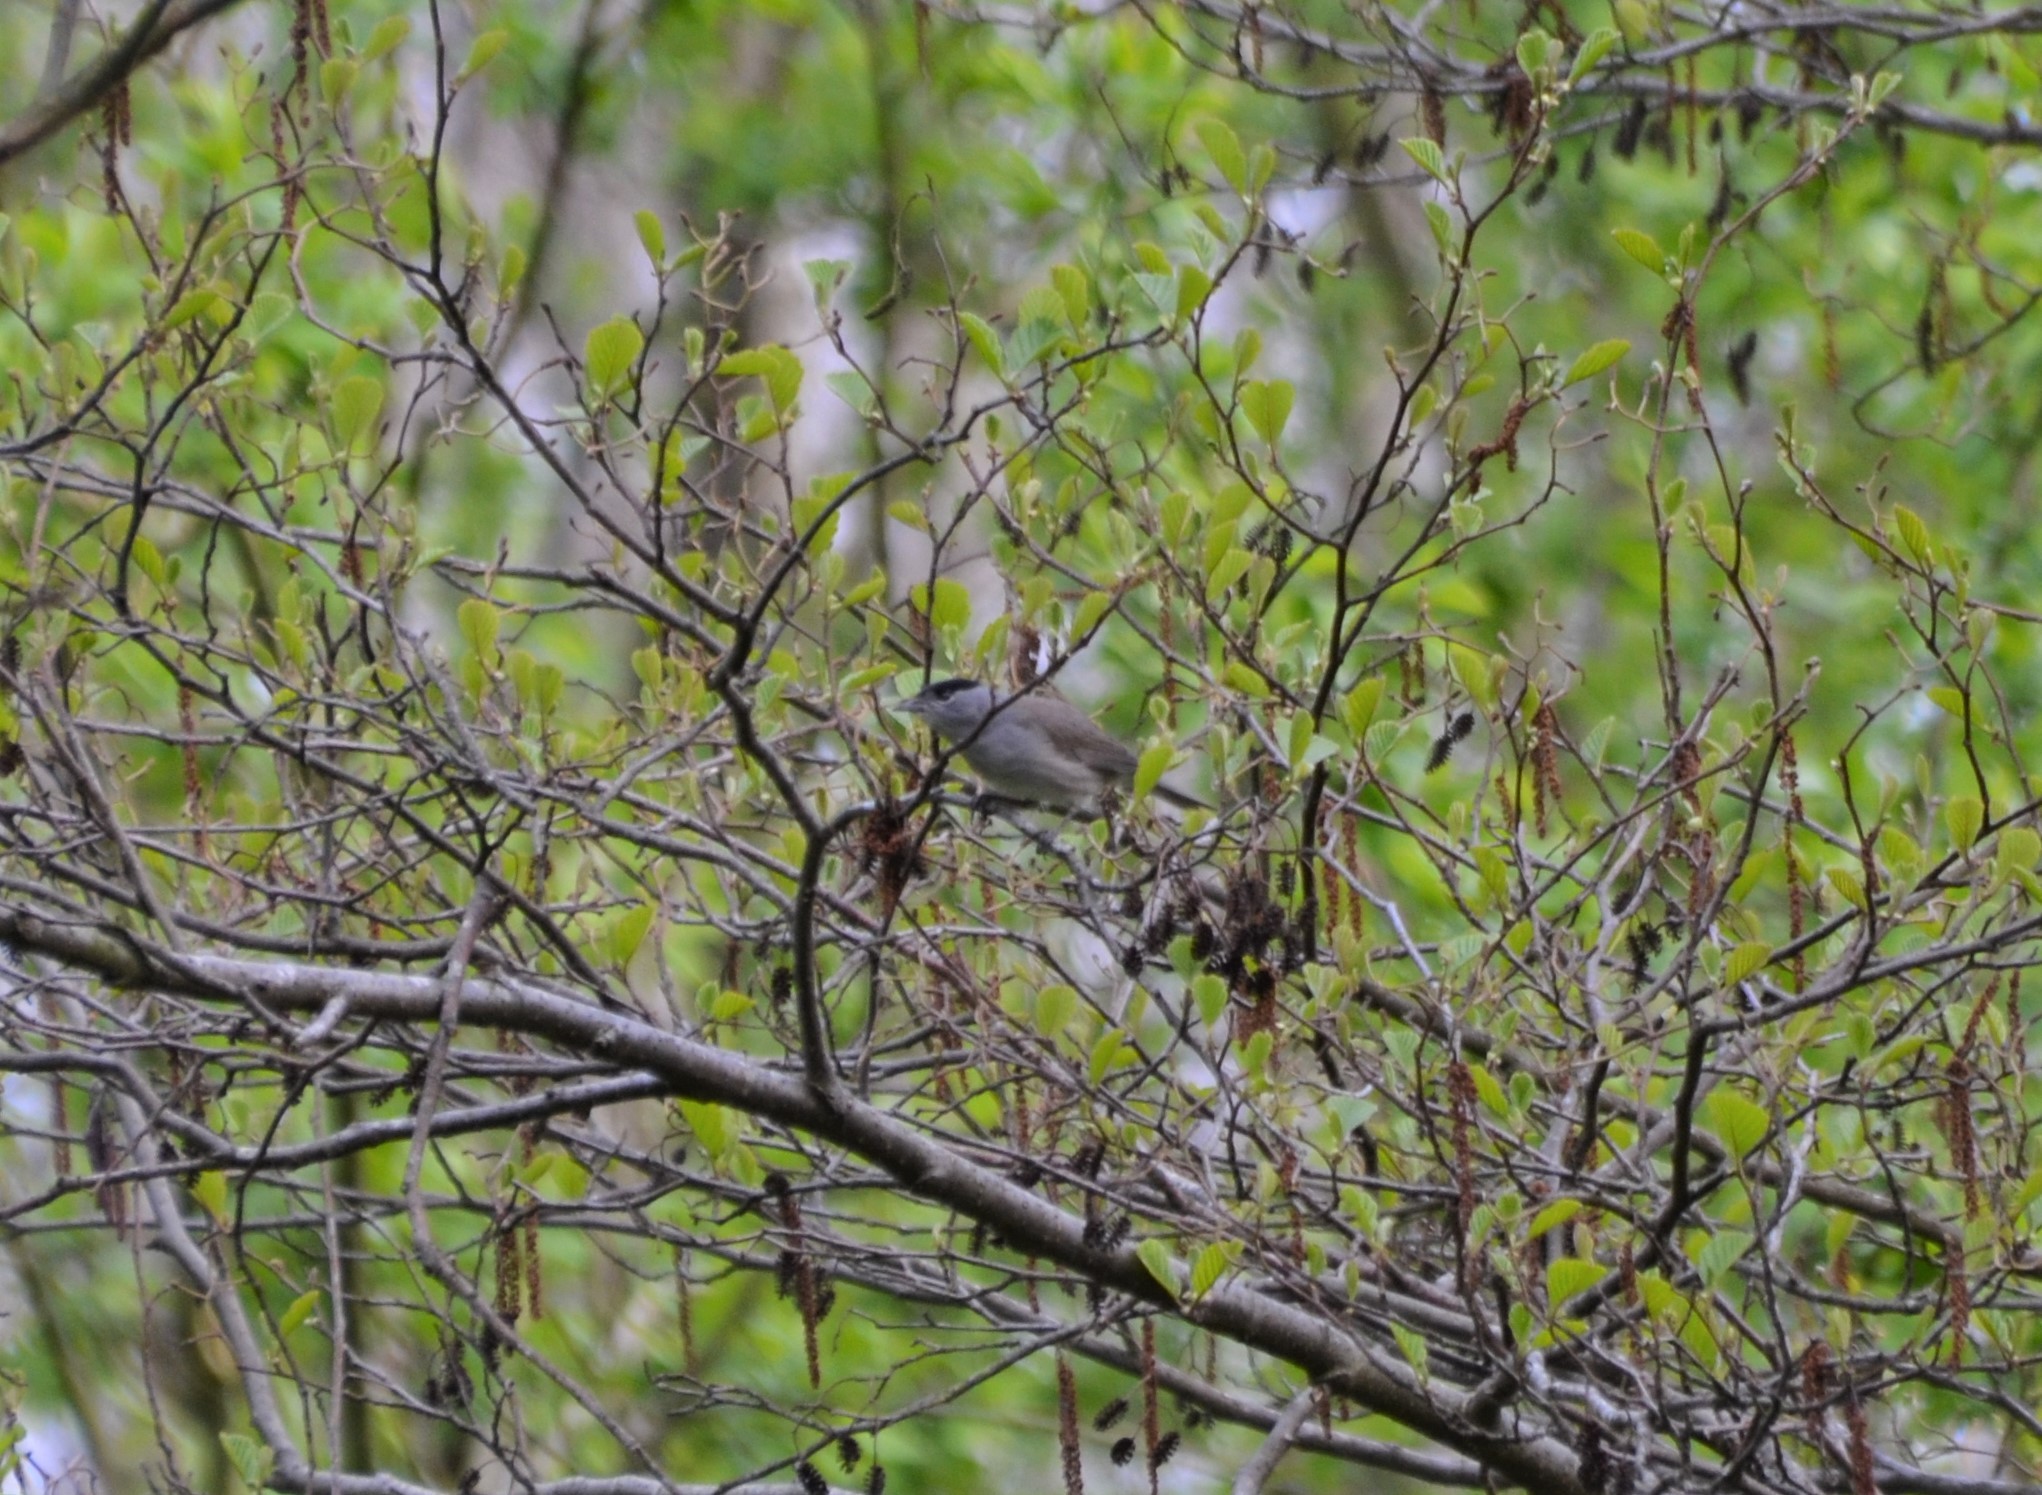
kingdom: Animalia
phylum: Chordata
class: Aves
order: Passeriformes
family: Sylviidae
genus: Sylvia
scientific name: Sylvia atricapilla
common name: Eurasian blackcap
